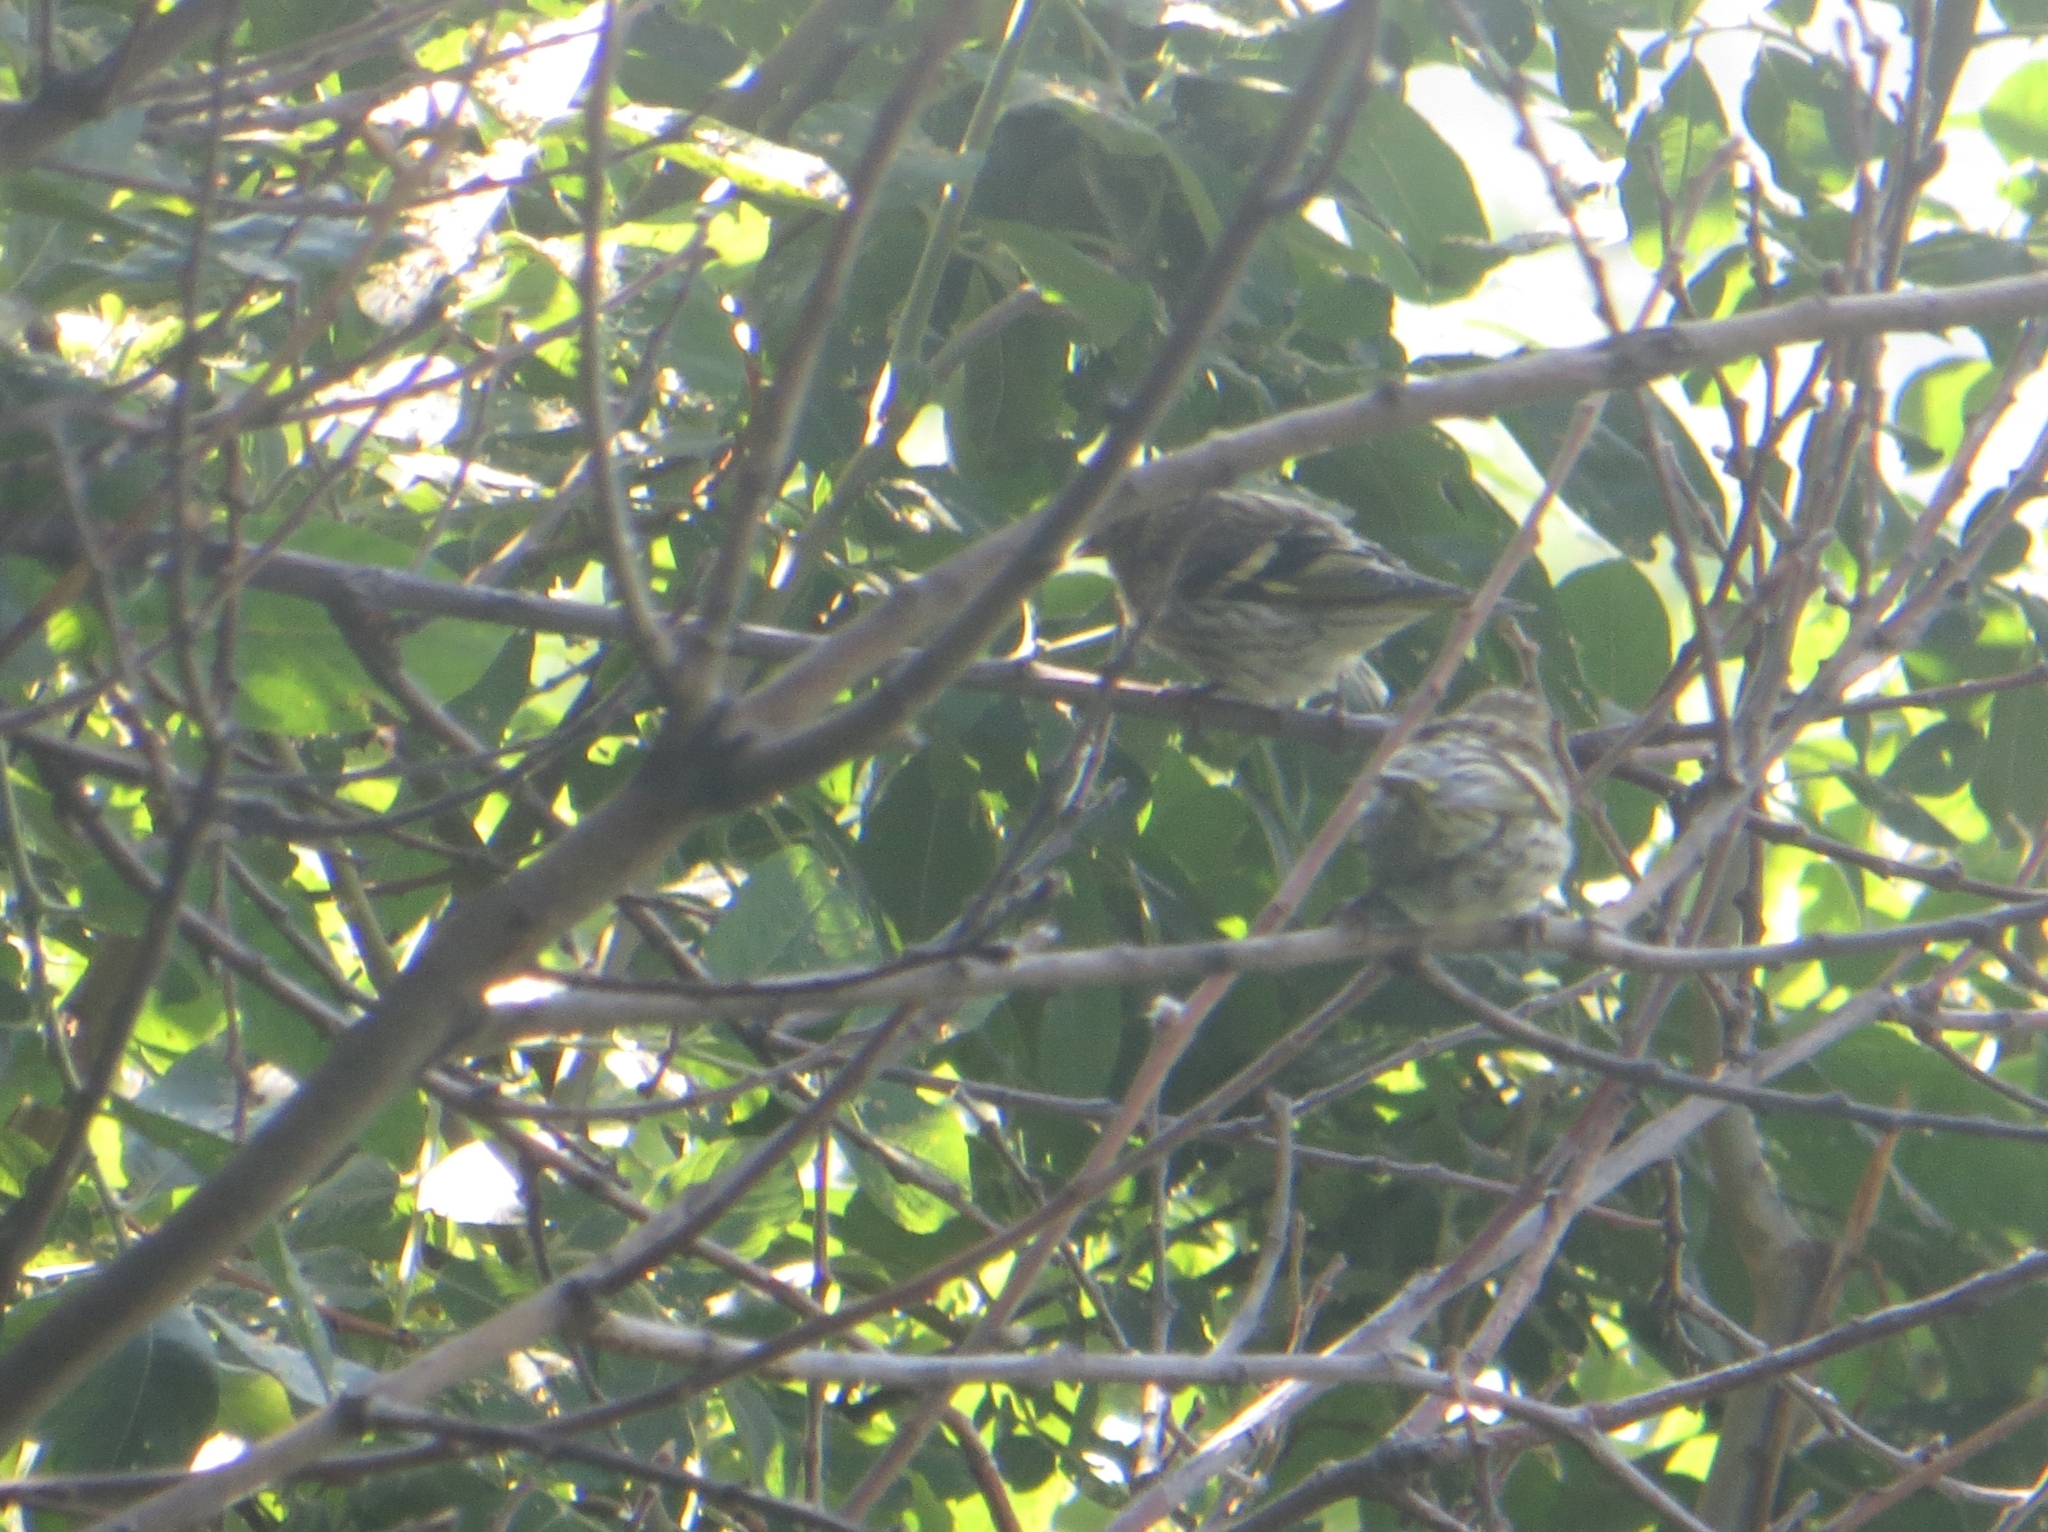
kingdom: Animalia
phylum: Chordata
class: Aves
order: Passeriformes
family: Fringillidae
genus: Spinus
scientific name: Spinus spinus
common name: Eurasian siskin
